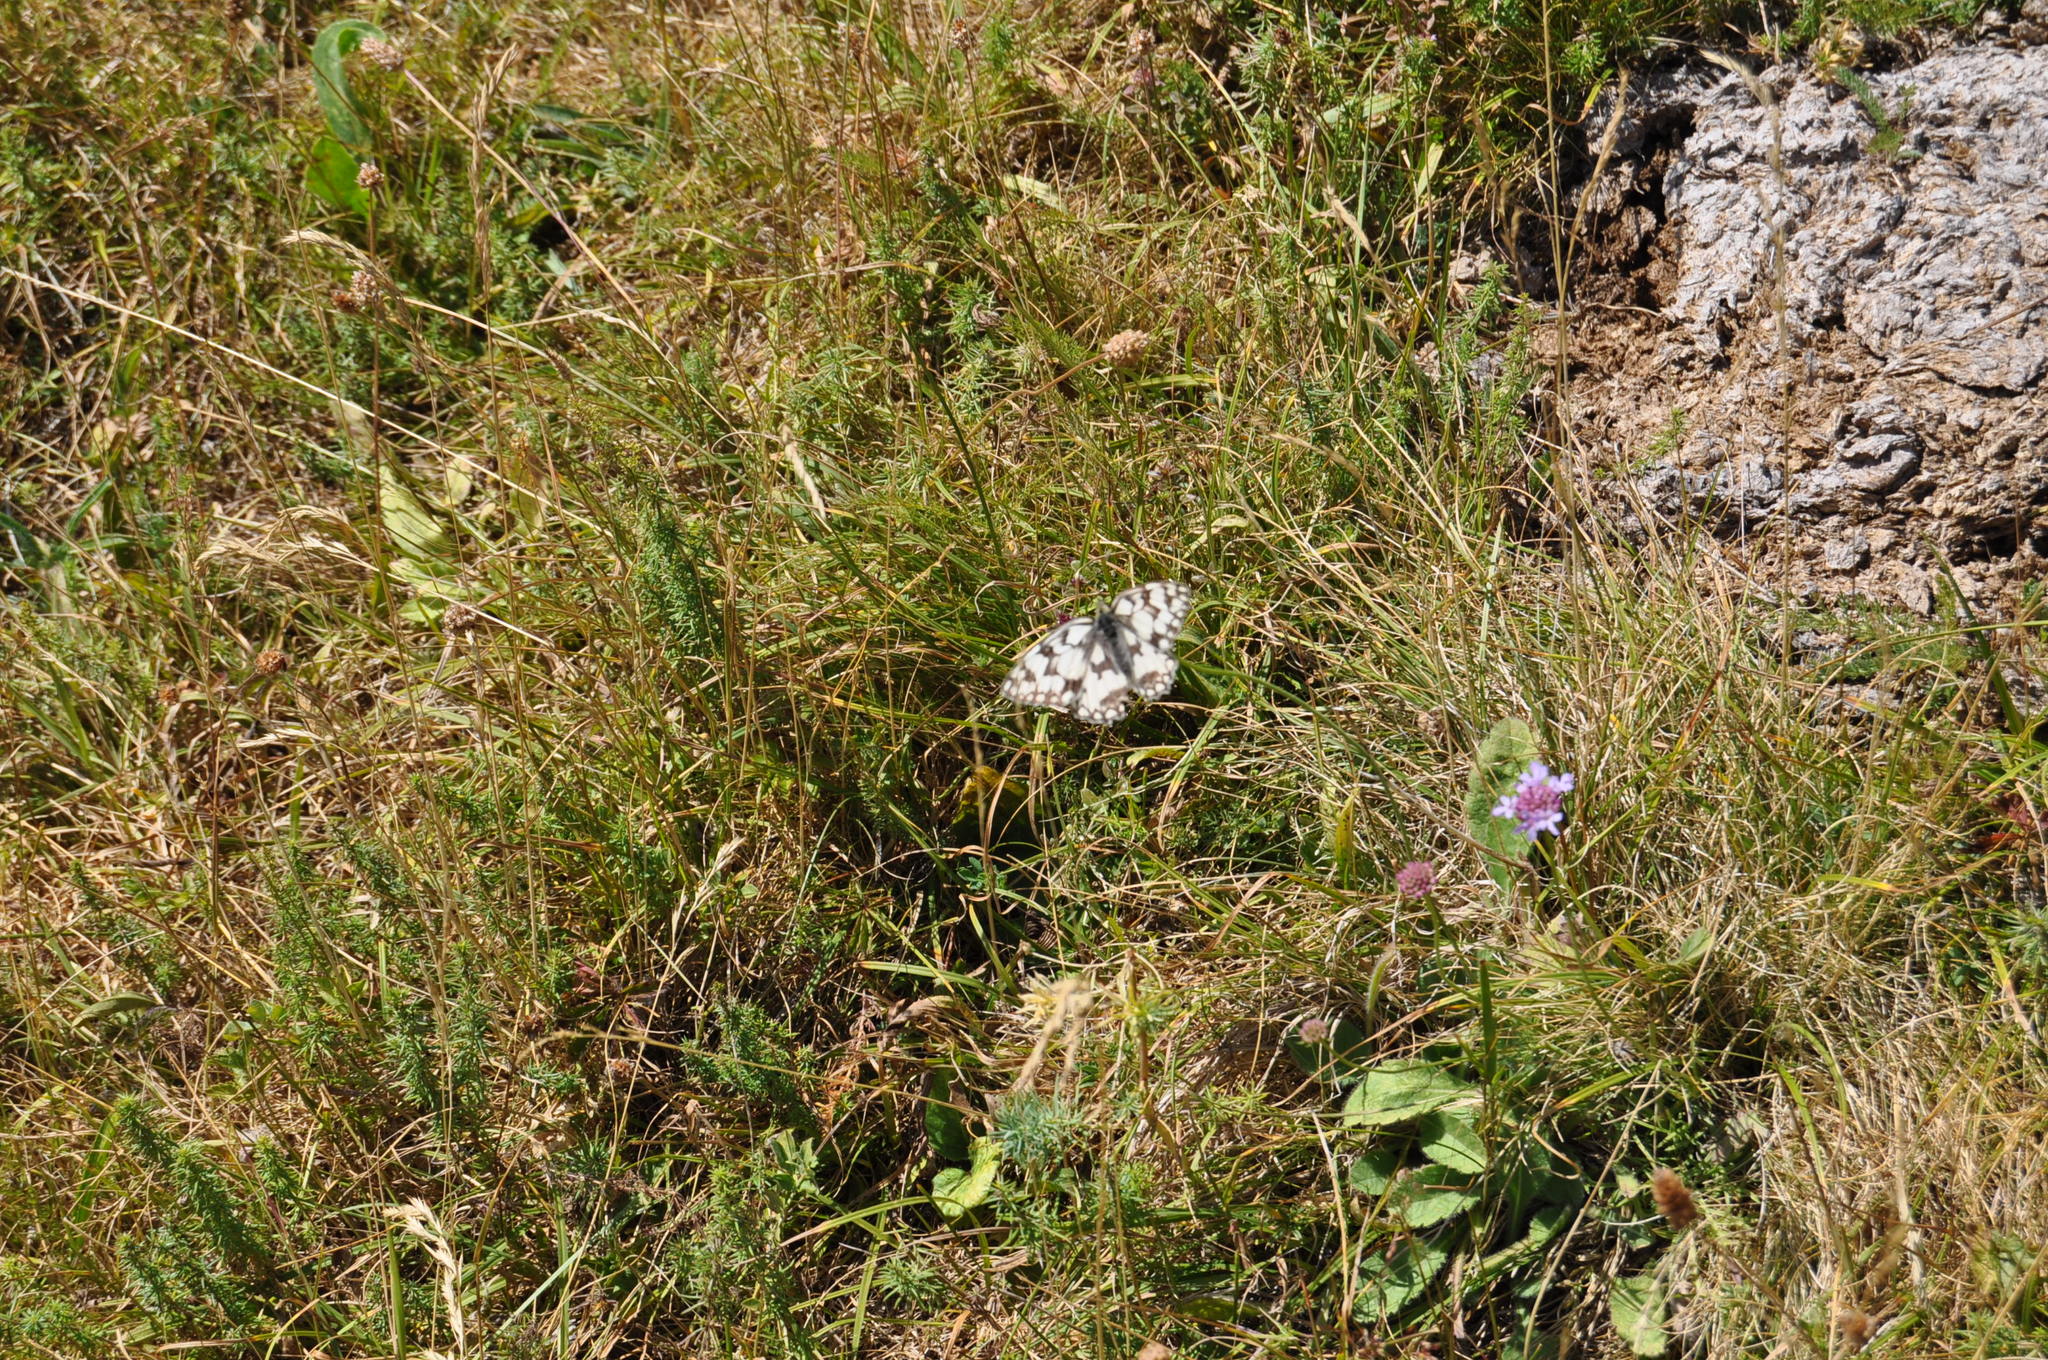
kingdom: Animalia
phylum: Arthropoda
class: Insecta
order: Lepidoptera
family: Nymphalidae
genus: Melanargia
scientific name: Melanargia japygia
